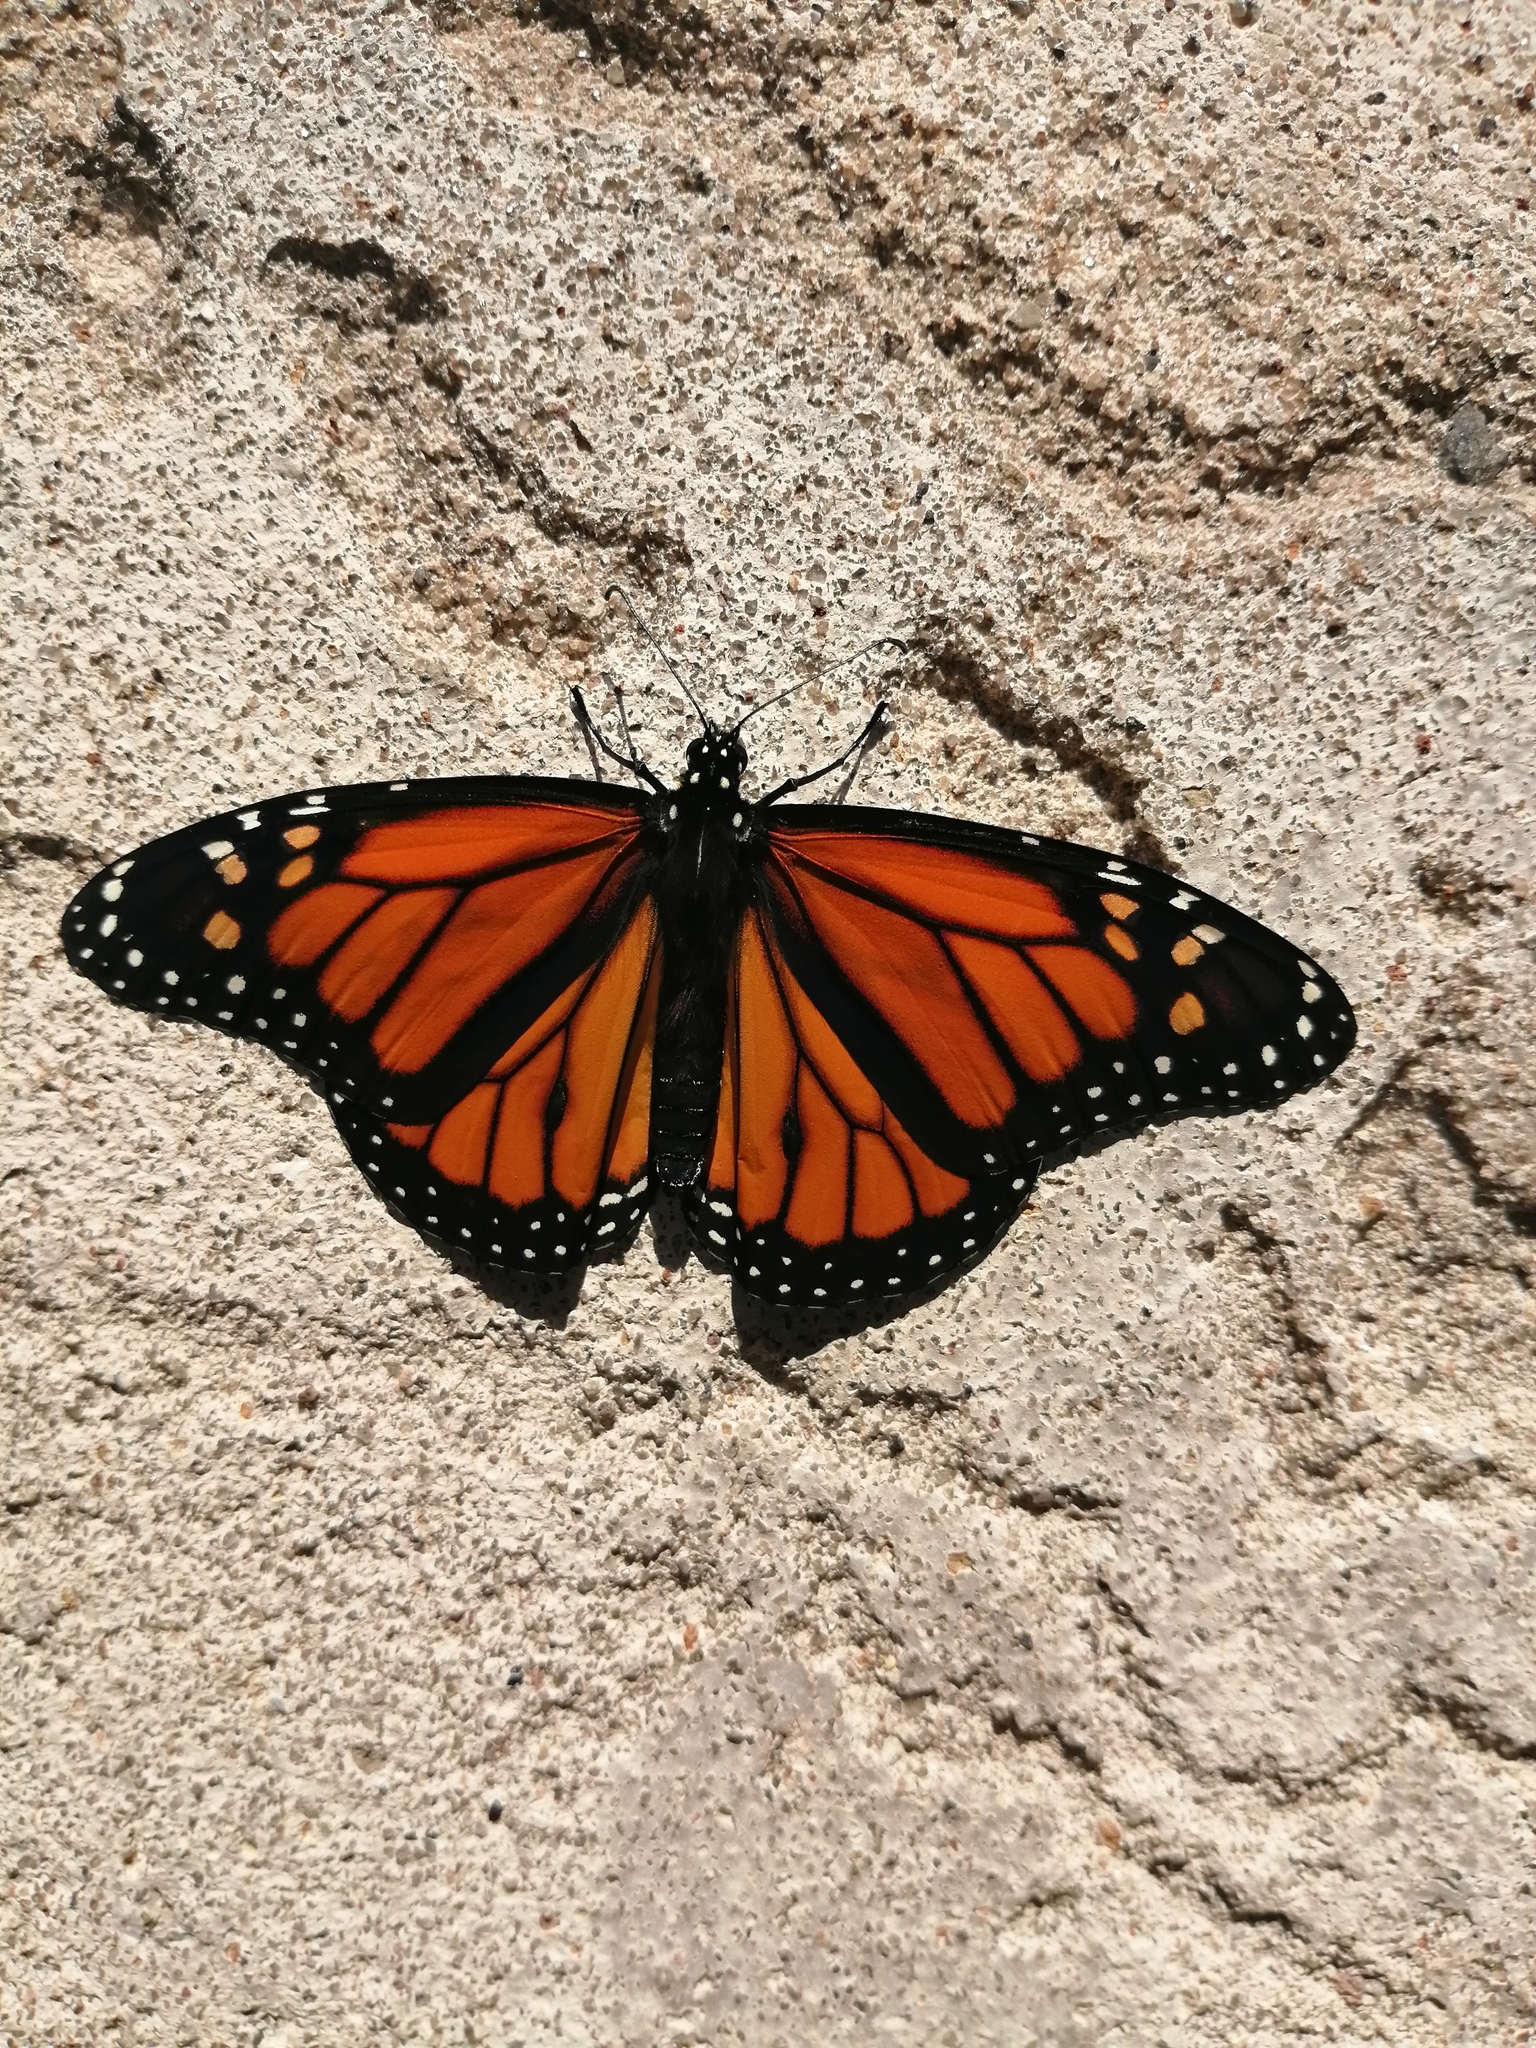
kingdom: Animalia
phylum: Arthropoda
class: Insecta
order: Lepidoptera
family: Nymphalidae
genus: Danaus
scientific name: Danaus plexippus
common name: Monarch
